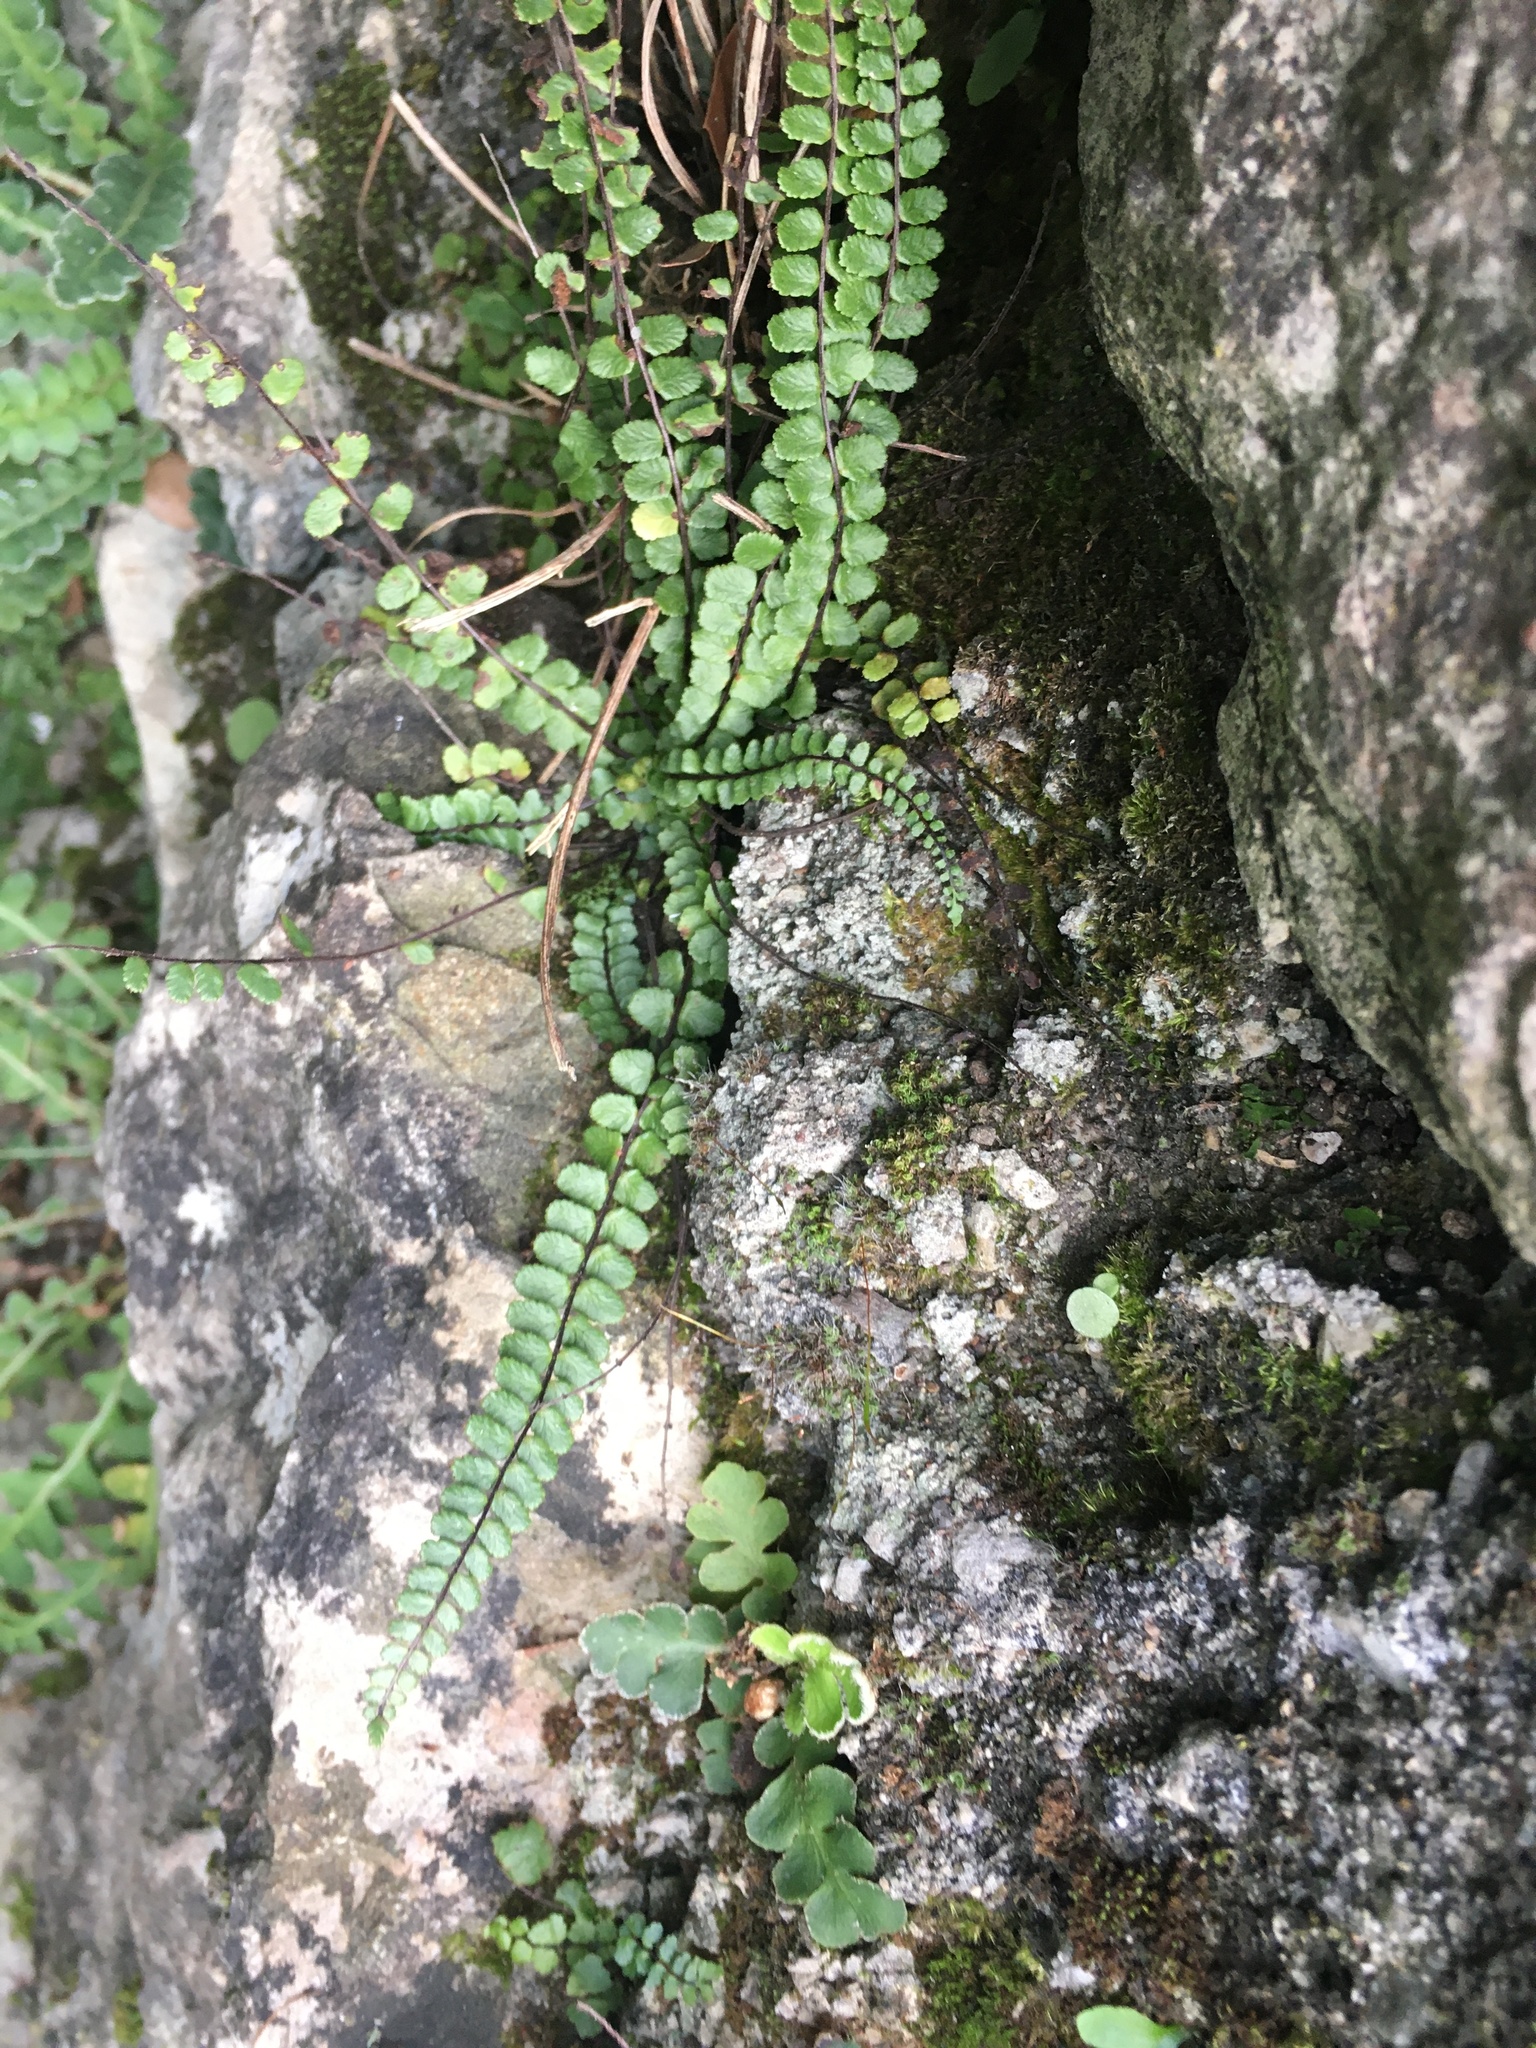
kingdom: Plantae
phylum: Tracheophyta
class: Polypodiopsida
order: Polypodiales
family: Aspleniaceae
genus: Asplenium
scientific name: Asplenium trichomanes
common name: Maidenhair spleenwort
